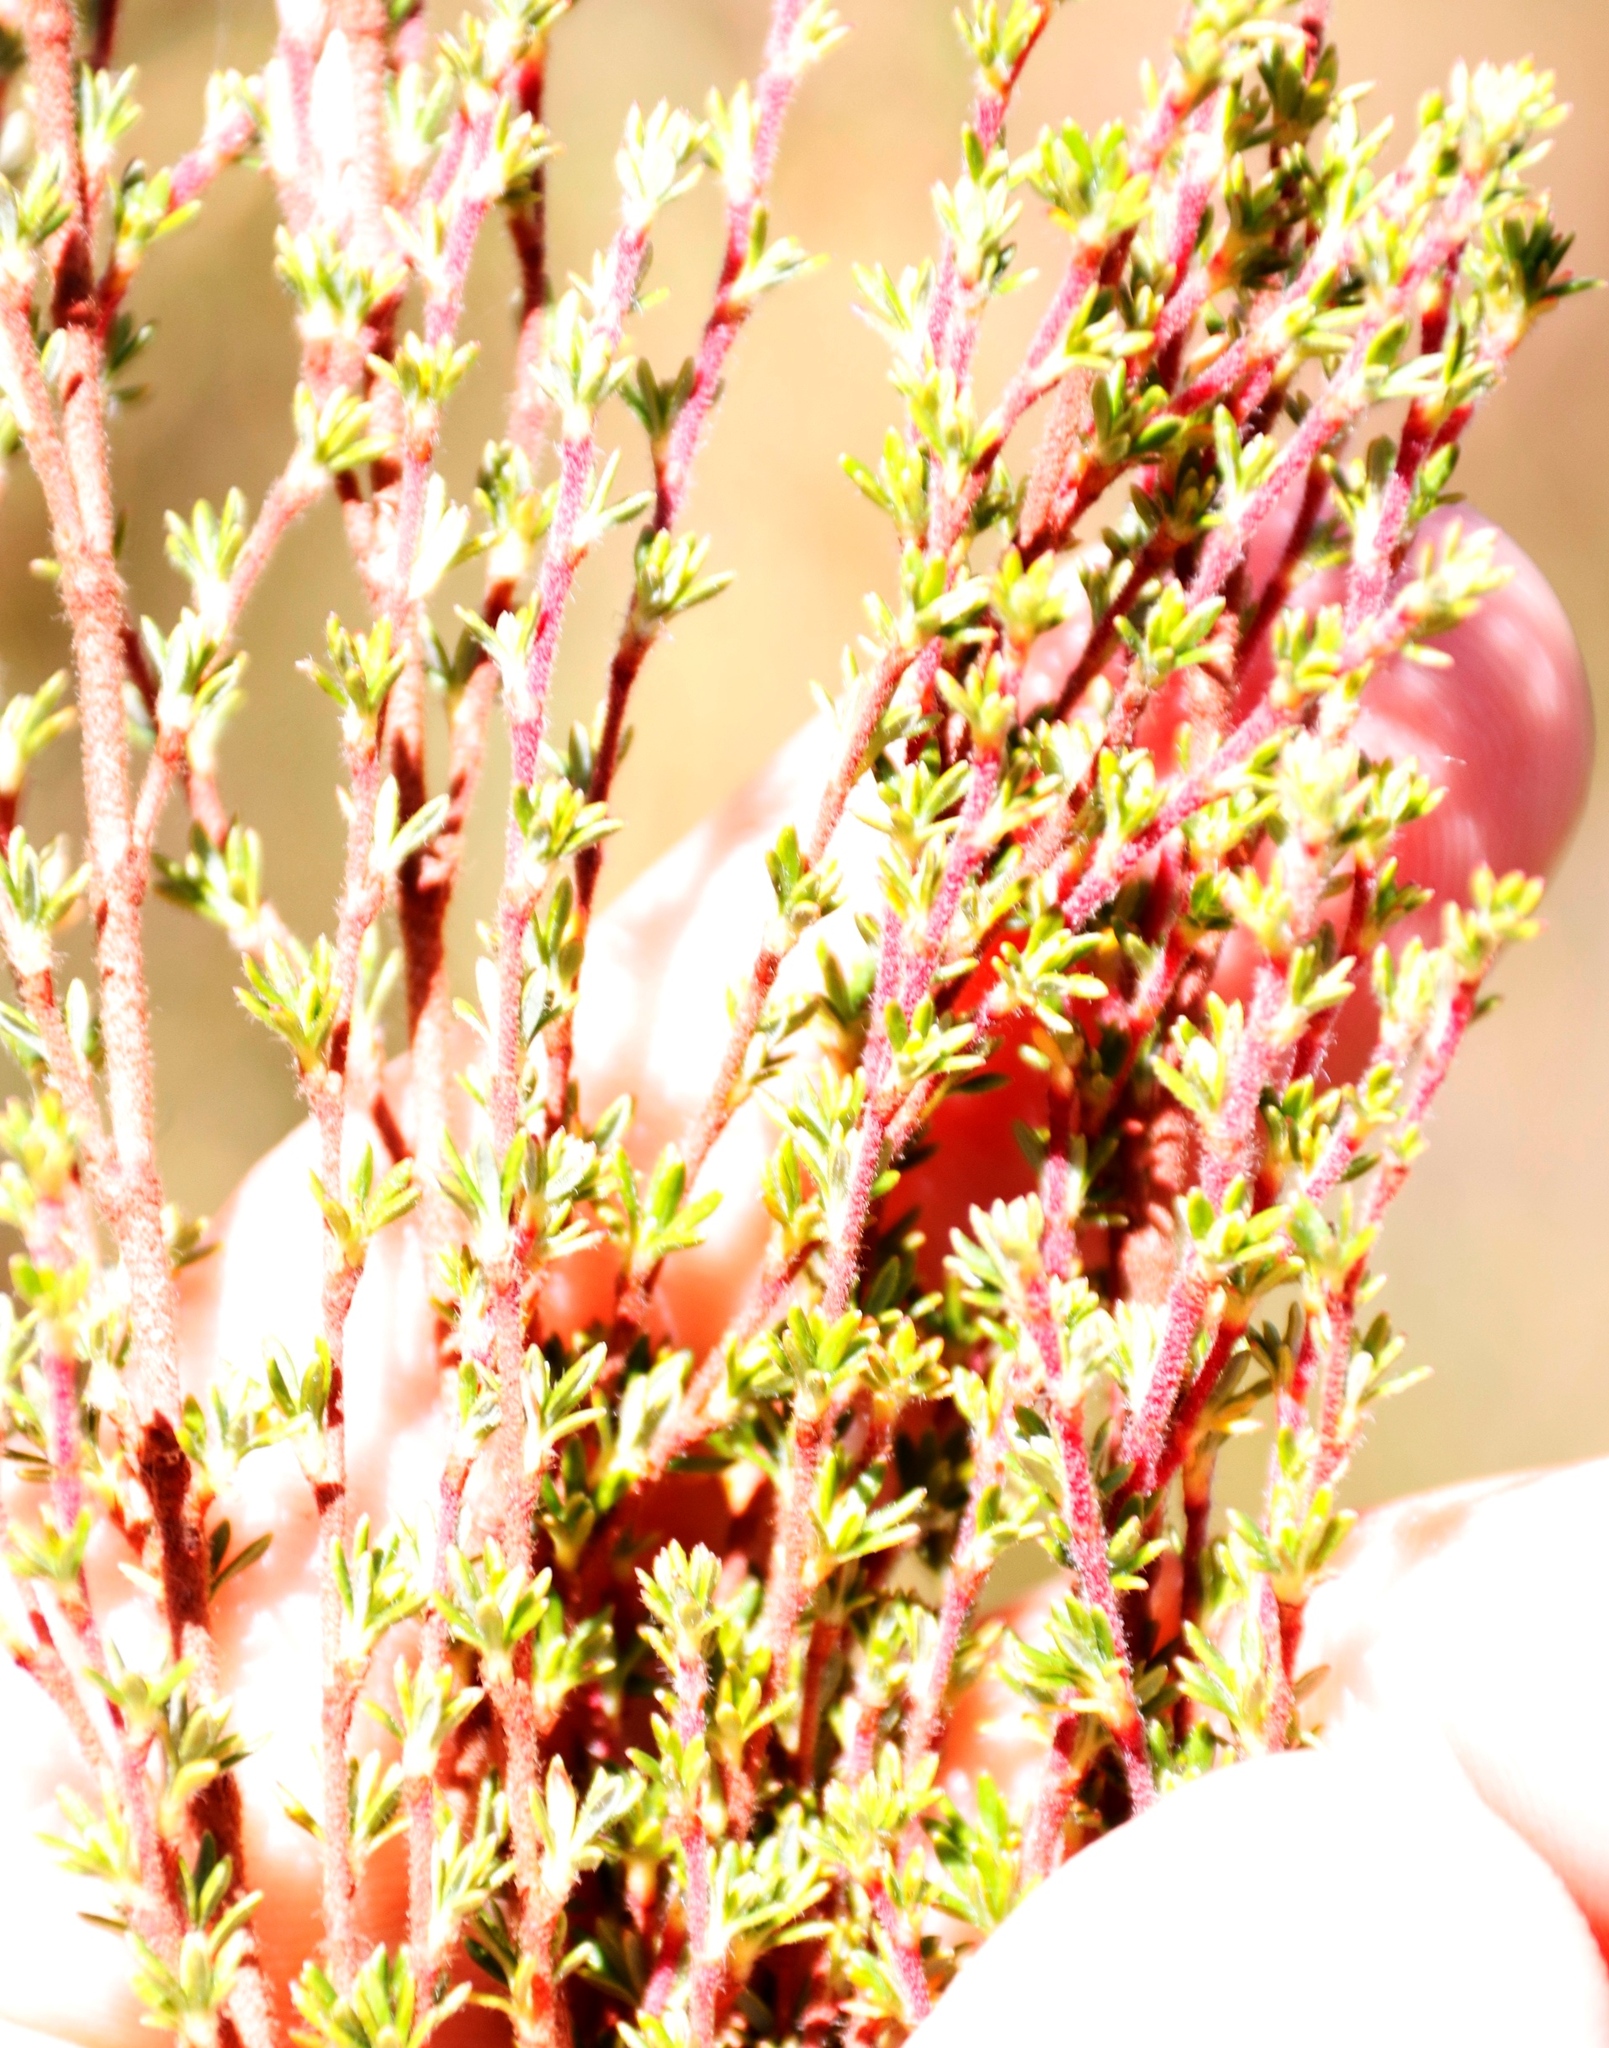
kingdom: Plantae
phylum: Tracheophyta
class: Magnoliopsida
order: Rosales
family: Rosaceae
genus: Cliffortia
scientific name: Cliffortia nitidula
